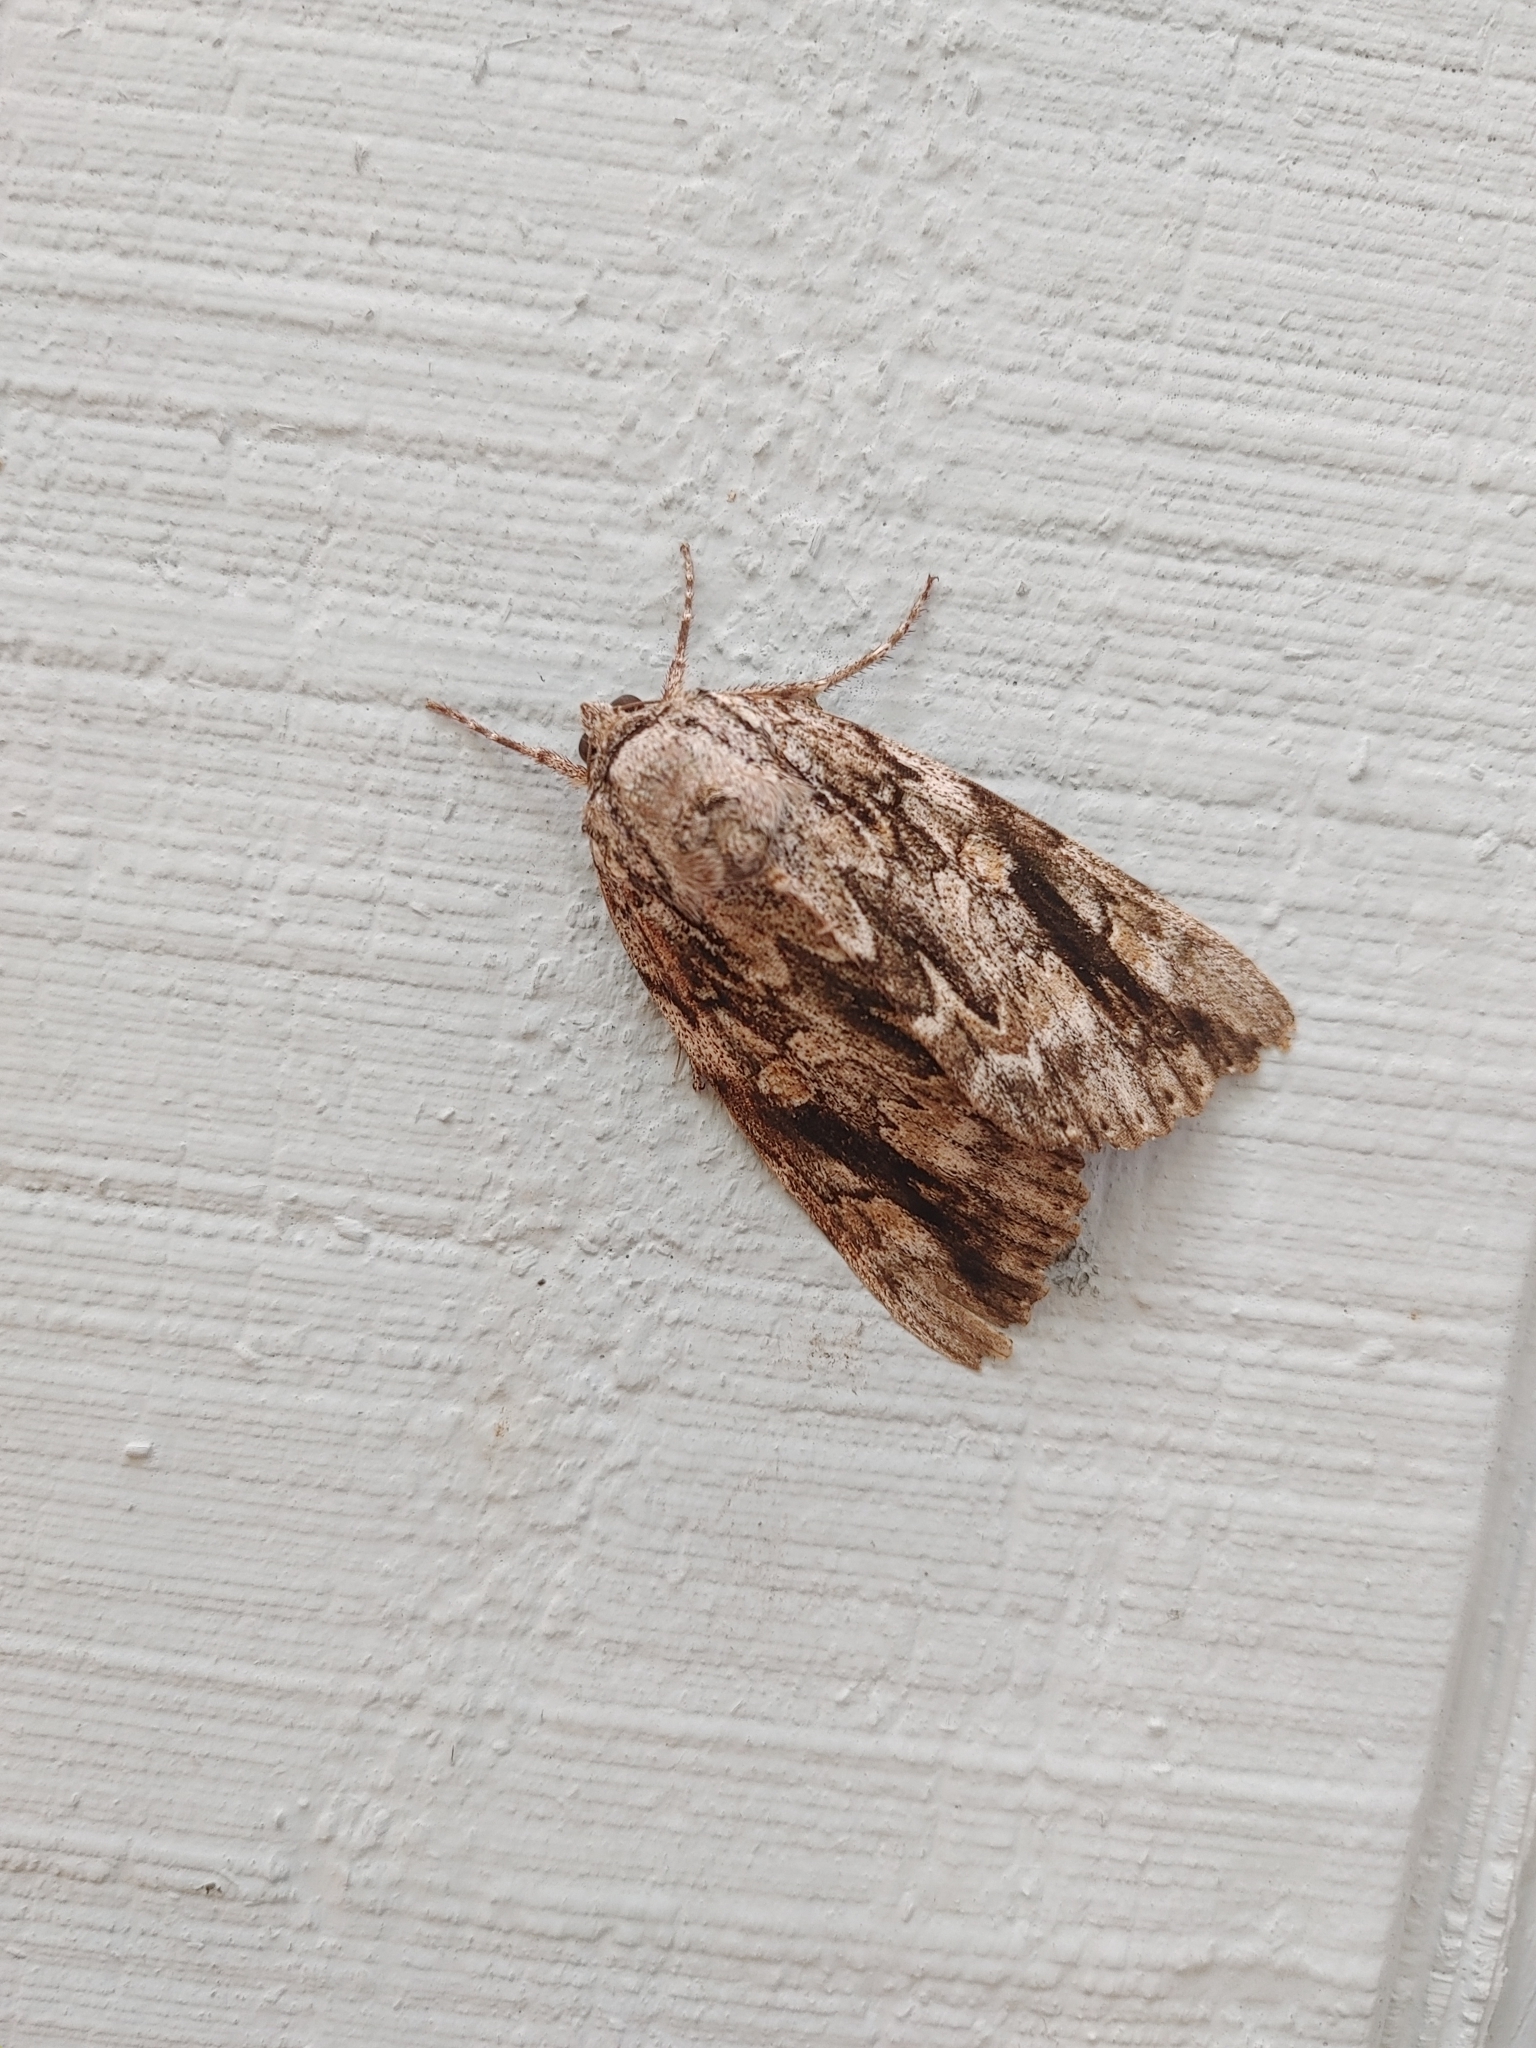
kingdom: Animalia
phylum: Arthropoda
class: Insecta
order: Lepidoptera
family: Erebidae
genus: Catocala
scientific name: Catocala maestosa
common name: Sad underwing
